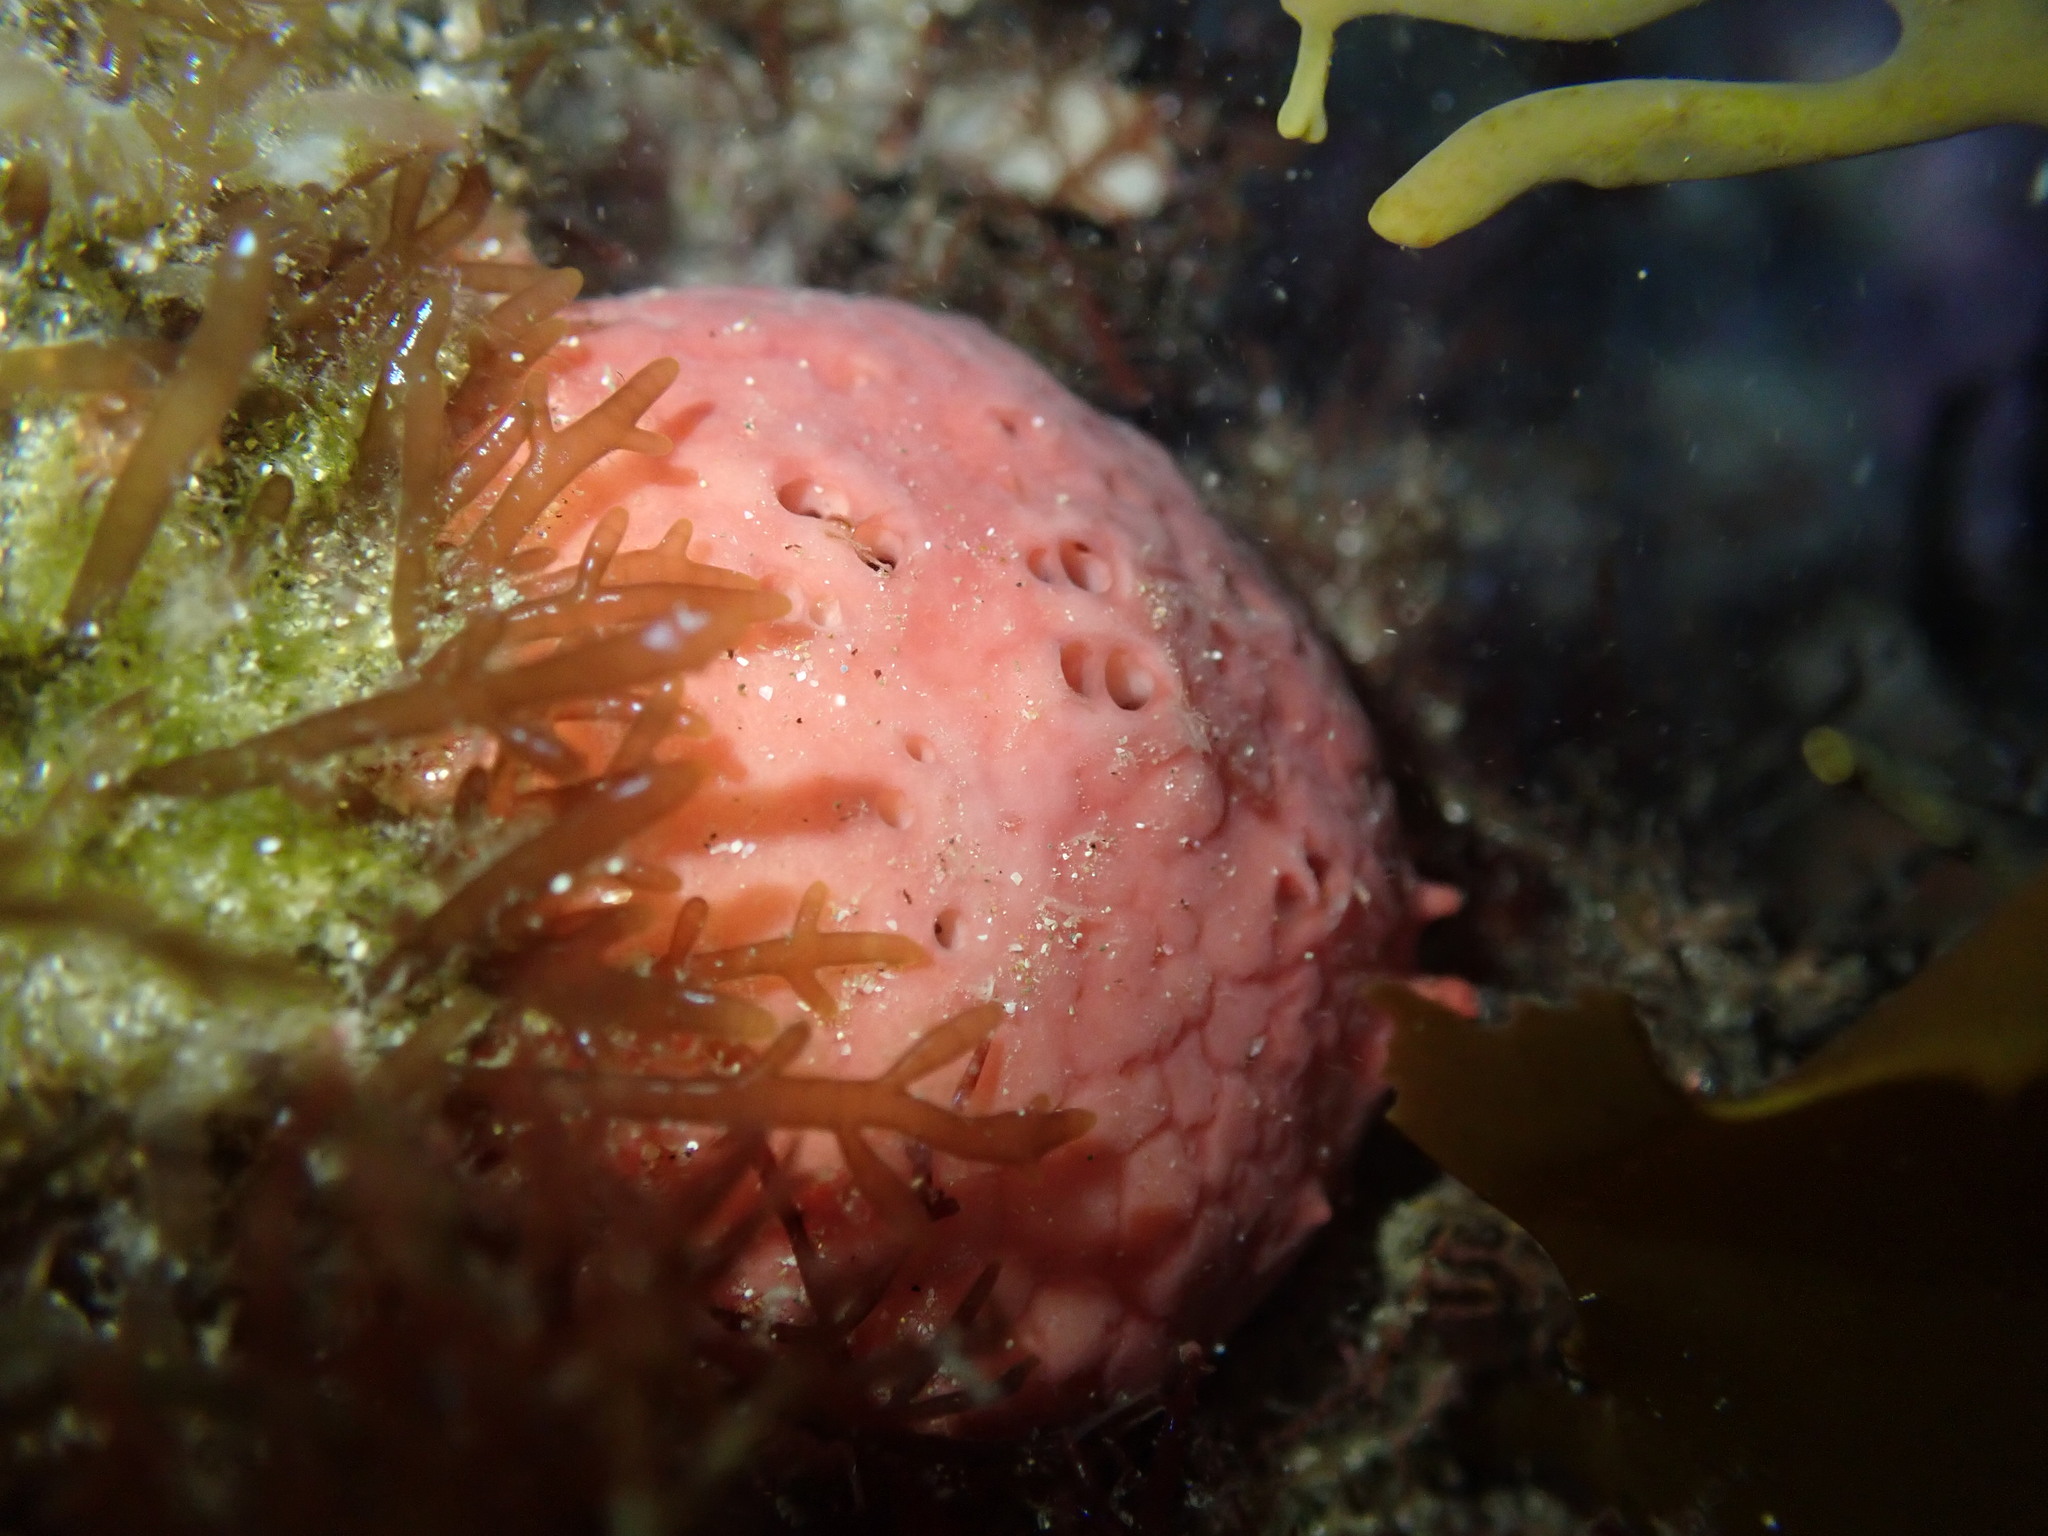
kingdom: Animalia
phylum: Porifera
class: Demospongiae
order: Tethyida
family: Tethyidae
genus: Tethya
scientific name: Tethya bergquistae
